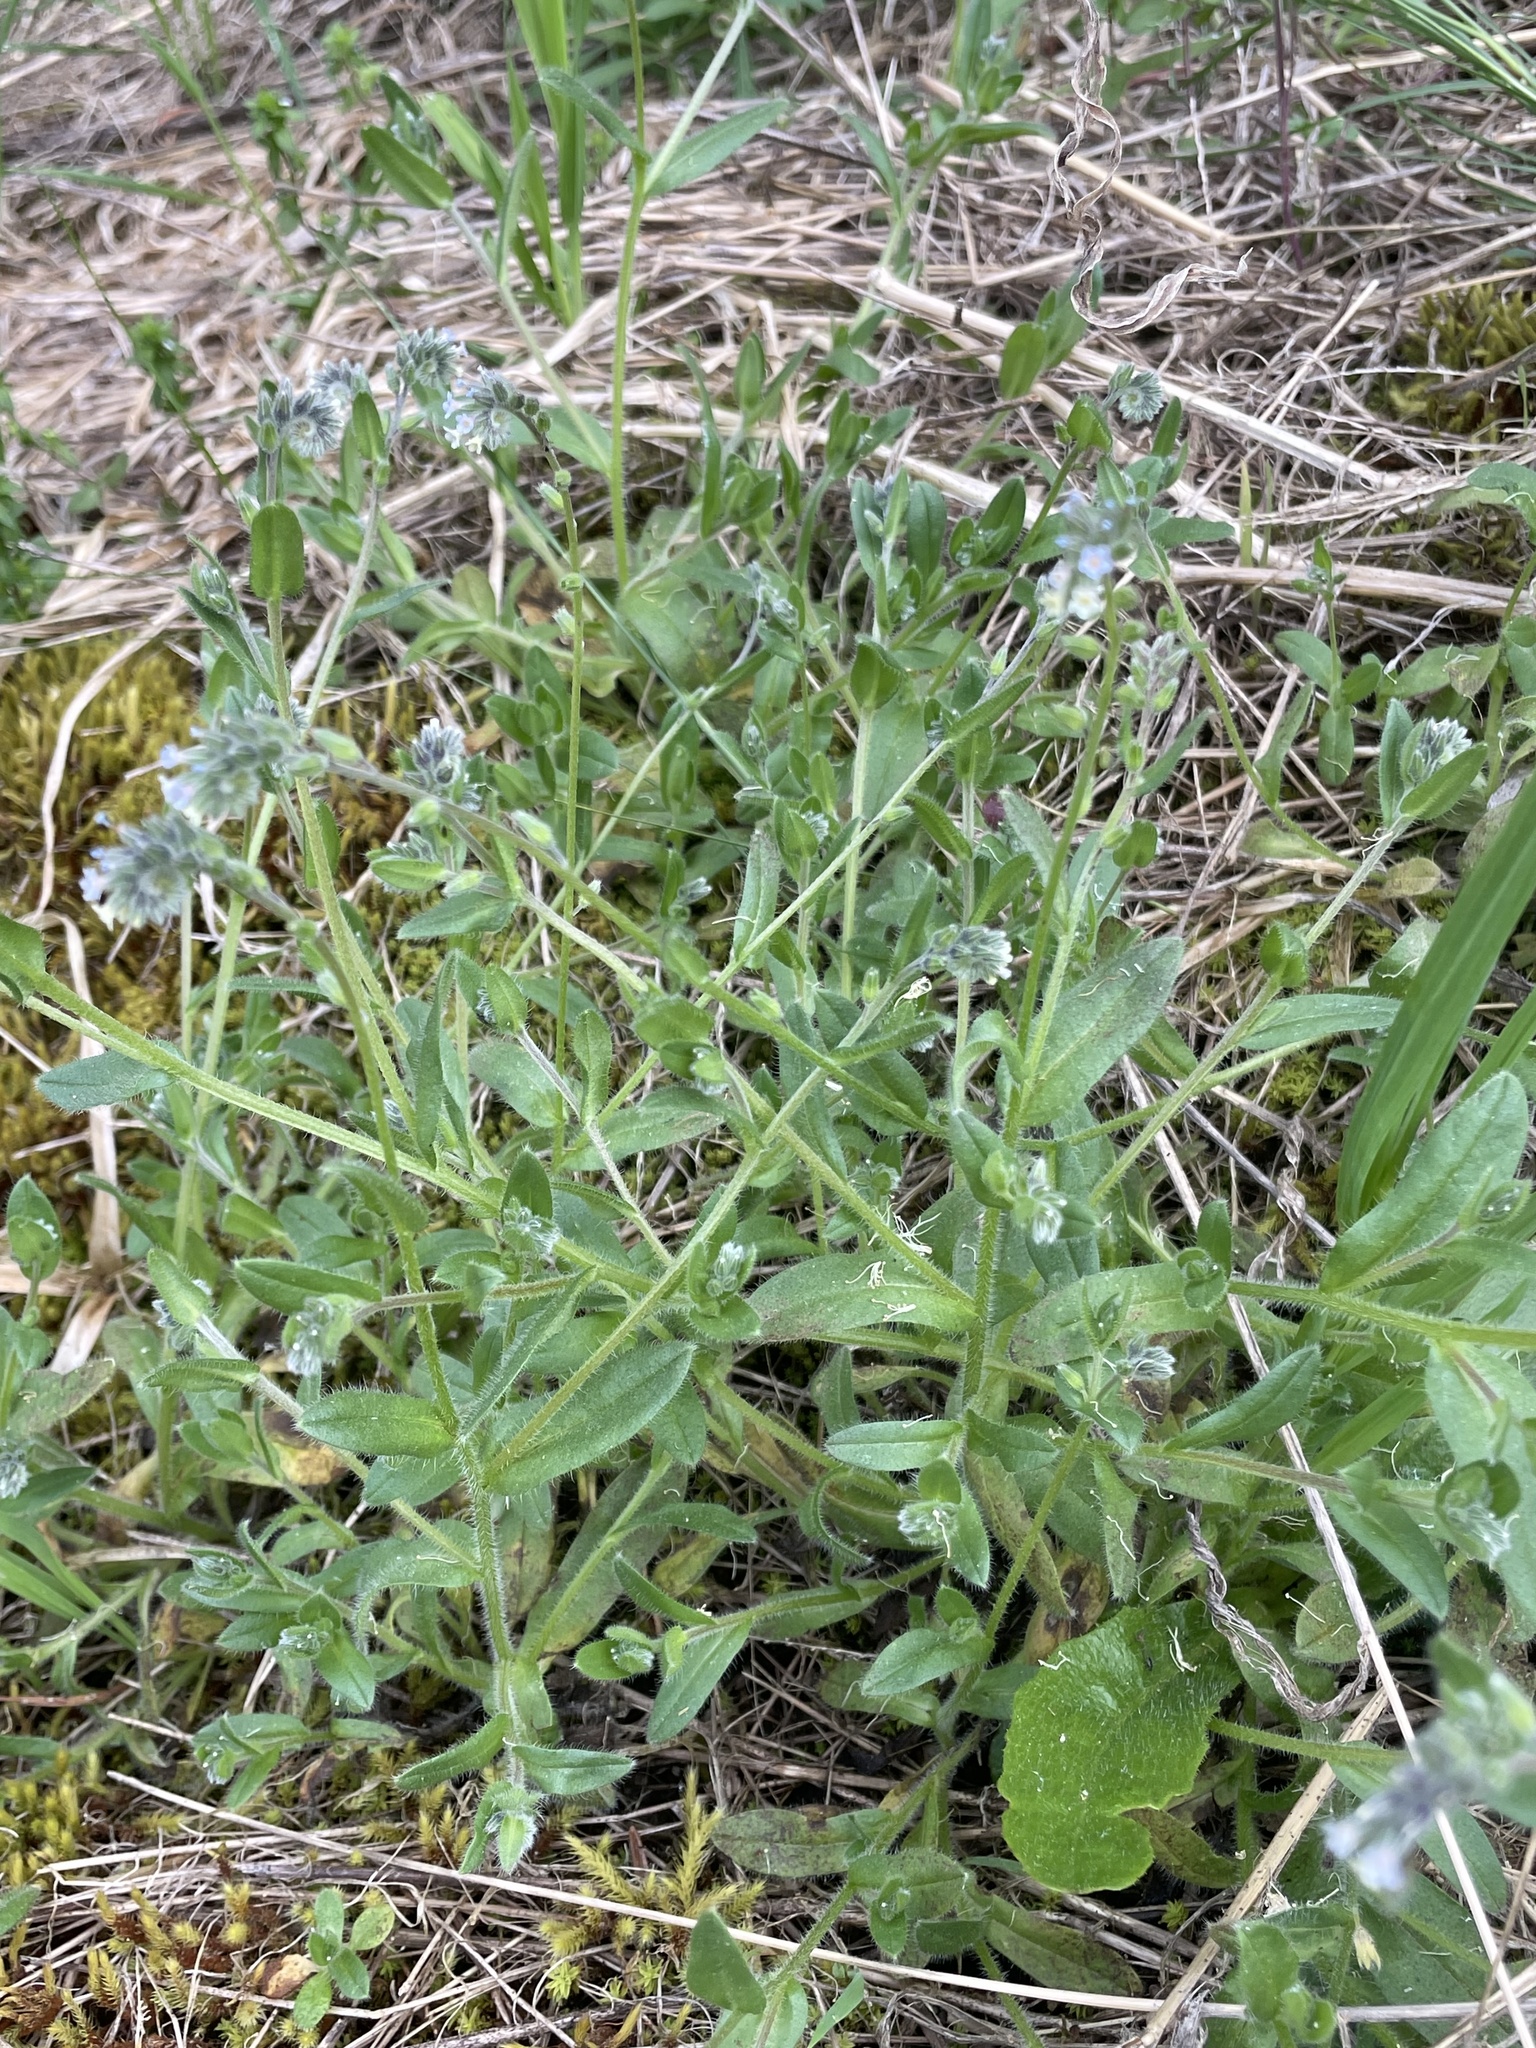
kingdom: Plantae
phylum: Tracheophyta
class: Magnoliopsida
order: Boraginales
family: Boraginaceae
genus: Myosotis
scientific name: Myosotis discolor
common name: Changing forget-me-not
